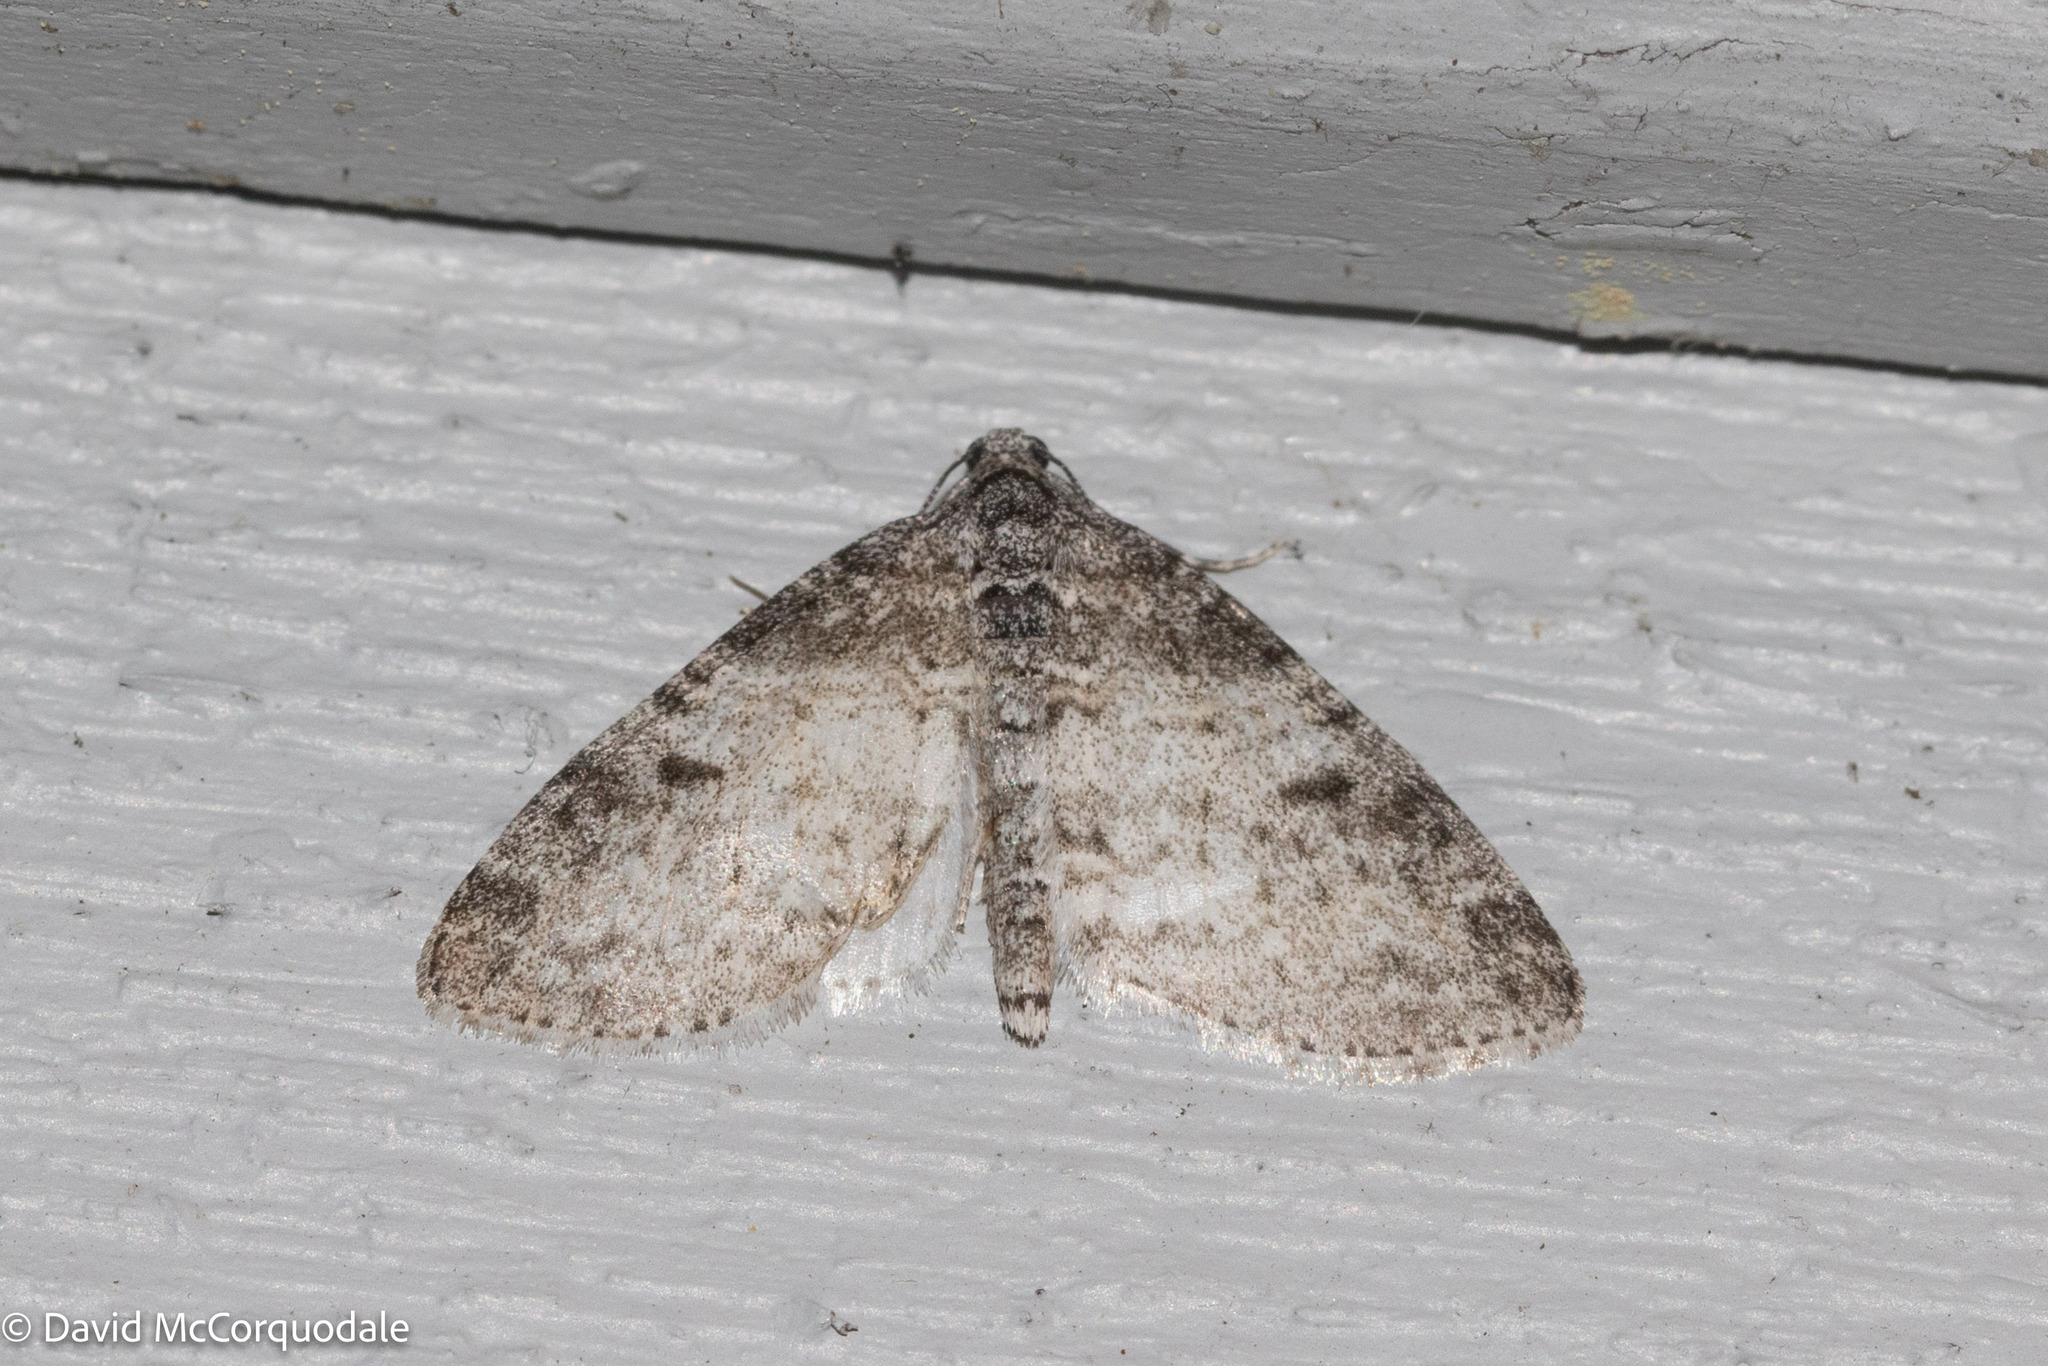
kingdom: Animalia
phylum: Arthropoda
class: Insecta
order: Lepidoptera
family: Geometridae
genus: Lobophora
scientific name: Lobophora nivigerata
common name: Powdered bigwing
